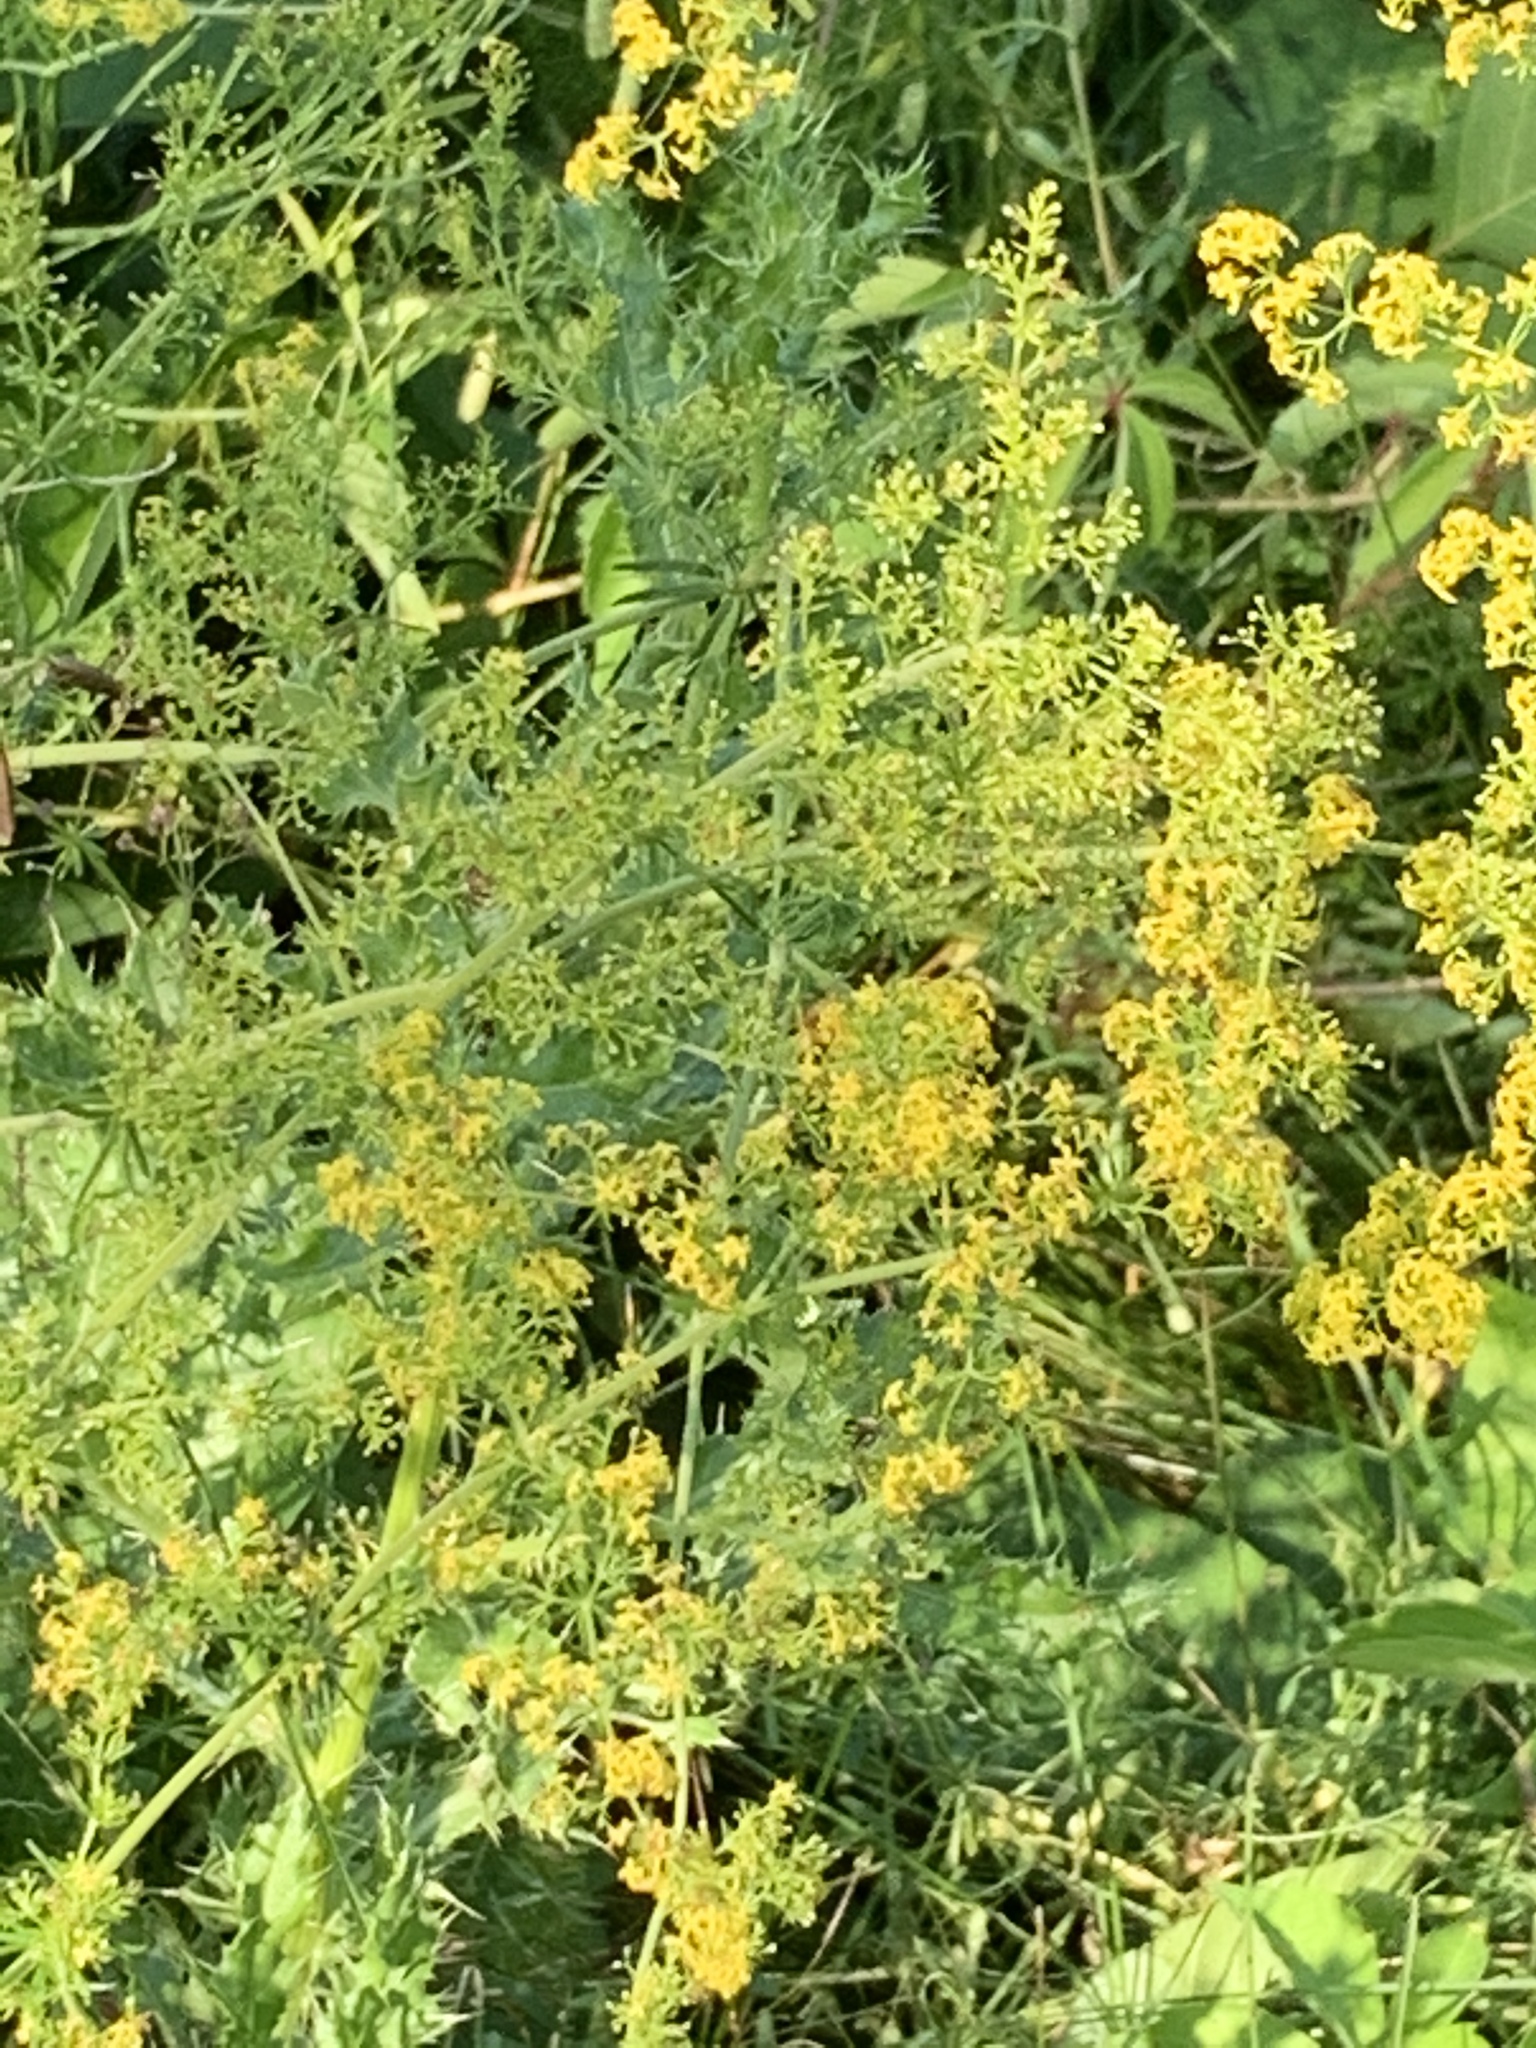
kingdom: Plantae
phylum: Tracheophyta
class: Magnoliopsida
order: Gentianales
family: Rubiaceae
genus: Galium
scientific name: Galium verum
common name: Lady's bedstraw
